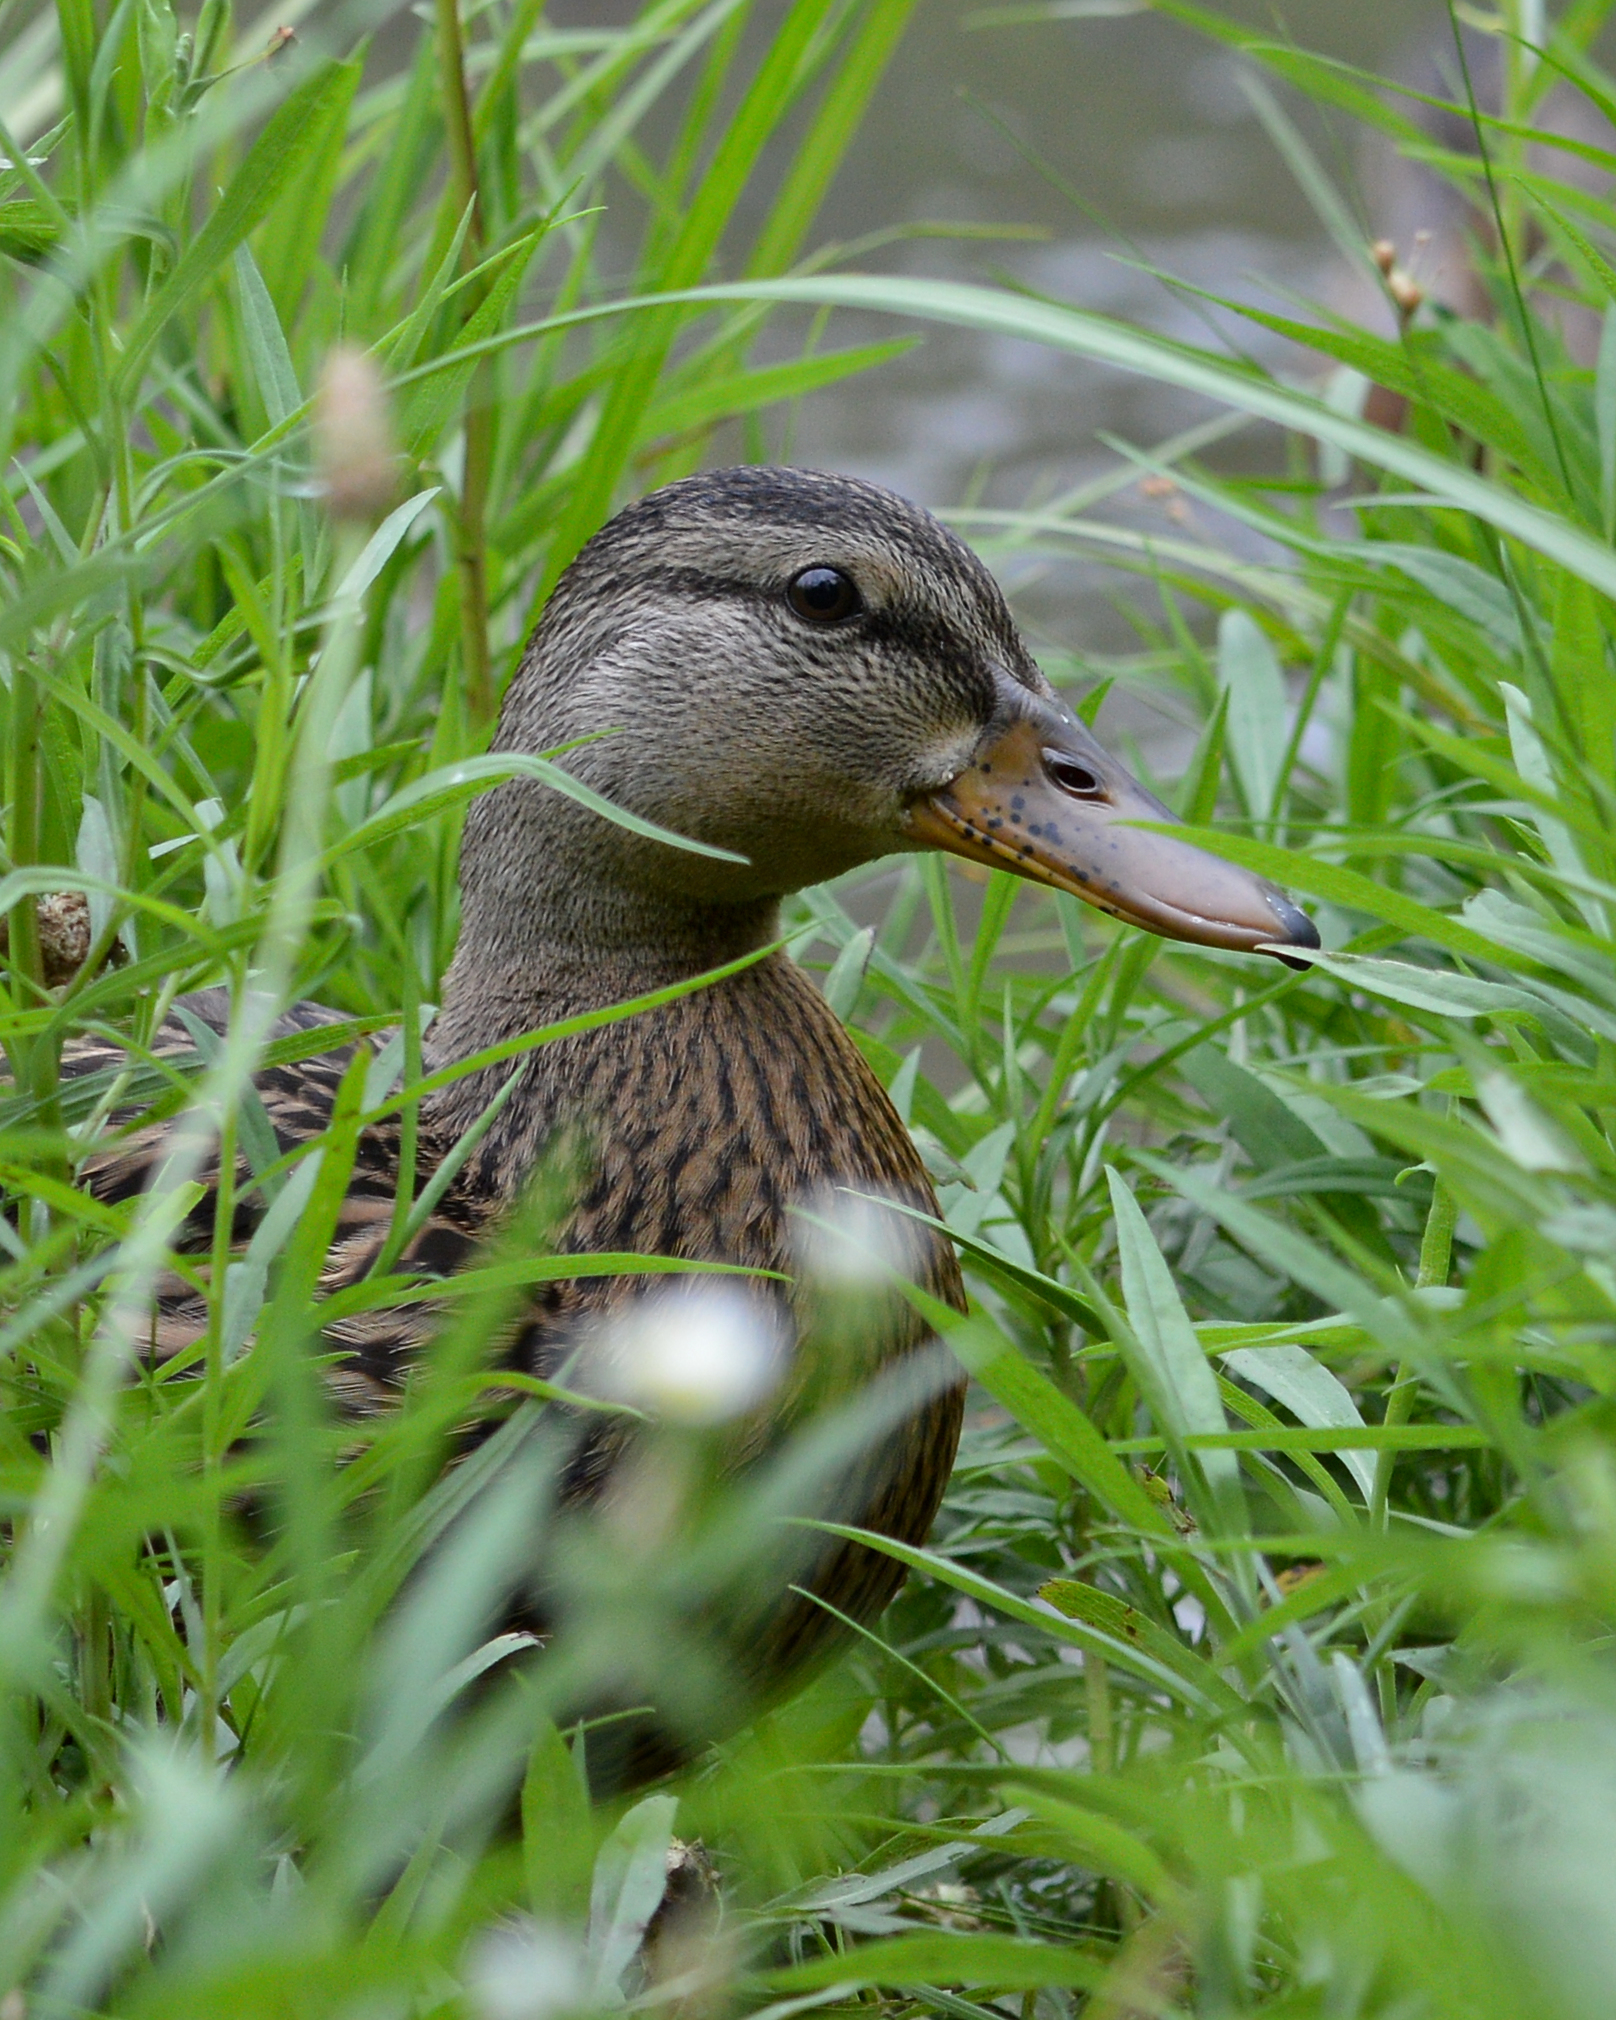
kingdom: Animalia
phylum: Chordata
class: Aves
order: Anseriformes
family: Anatidae
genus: Anas
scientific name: Anas platyrhynchos
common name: Mallard
